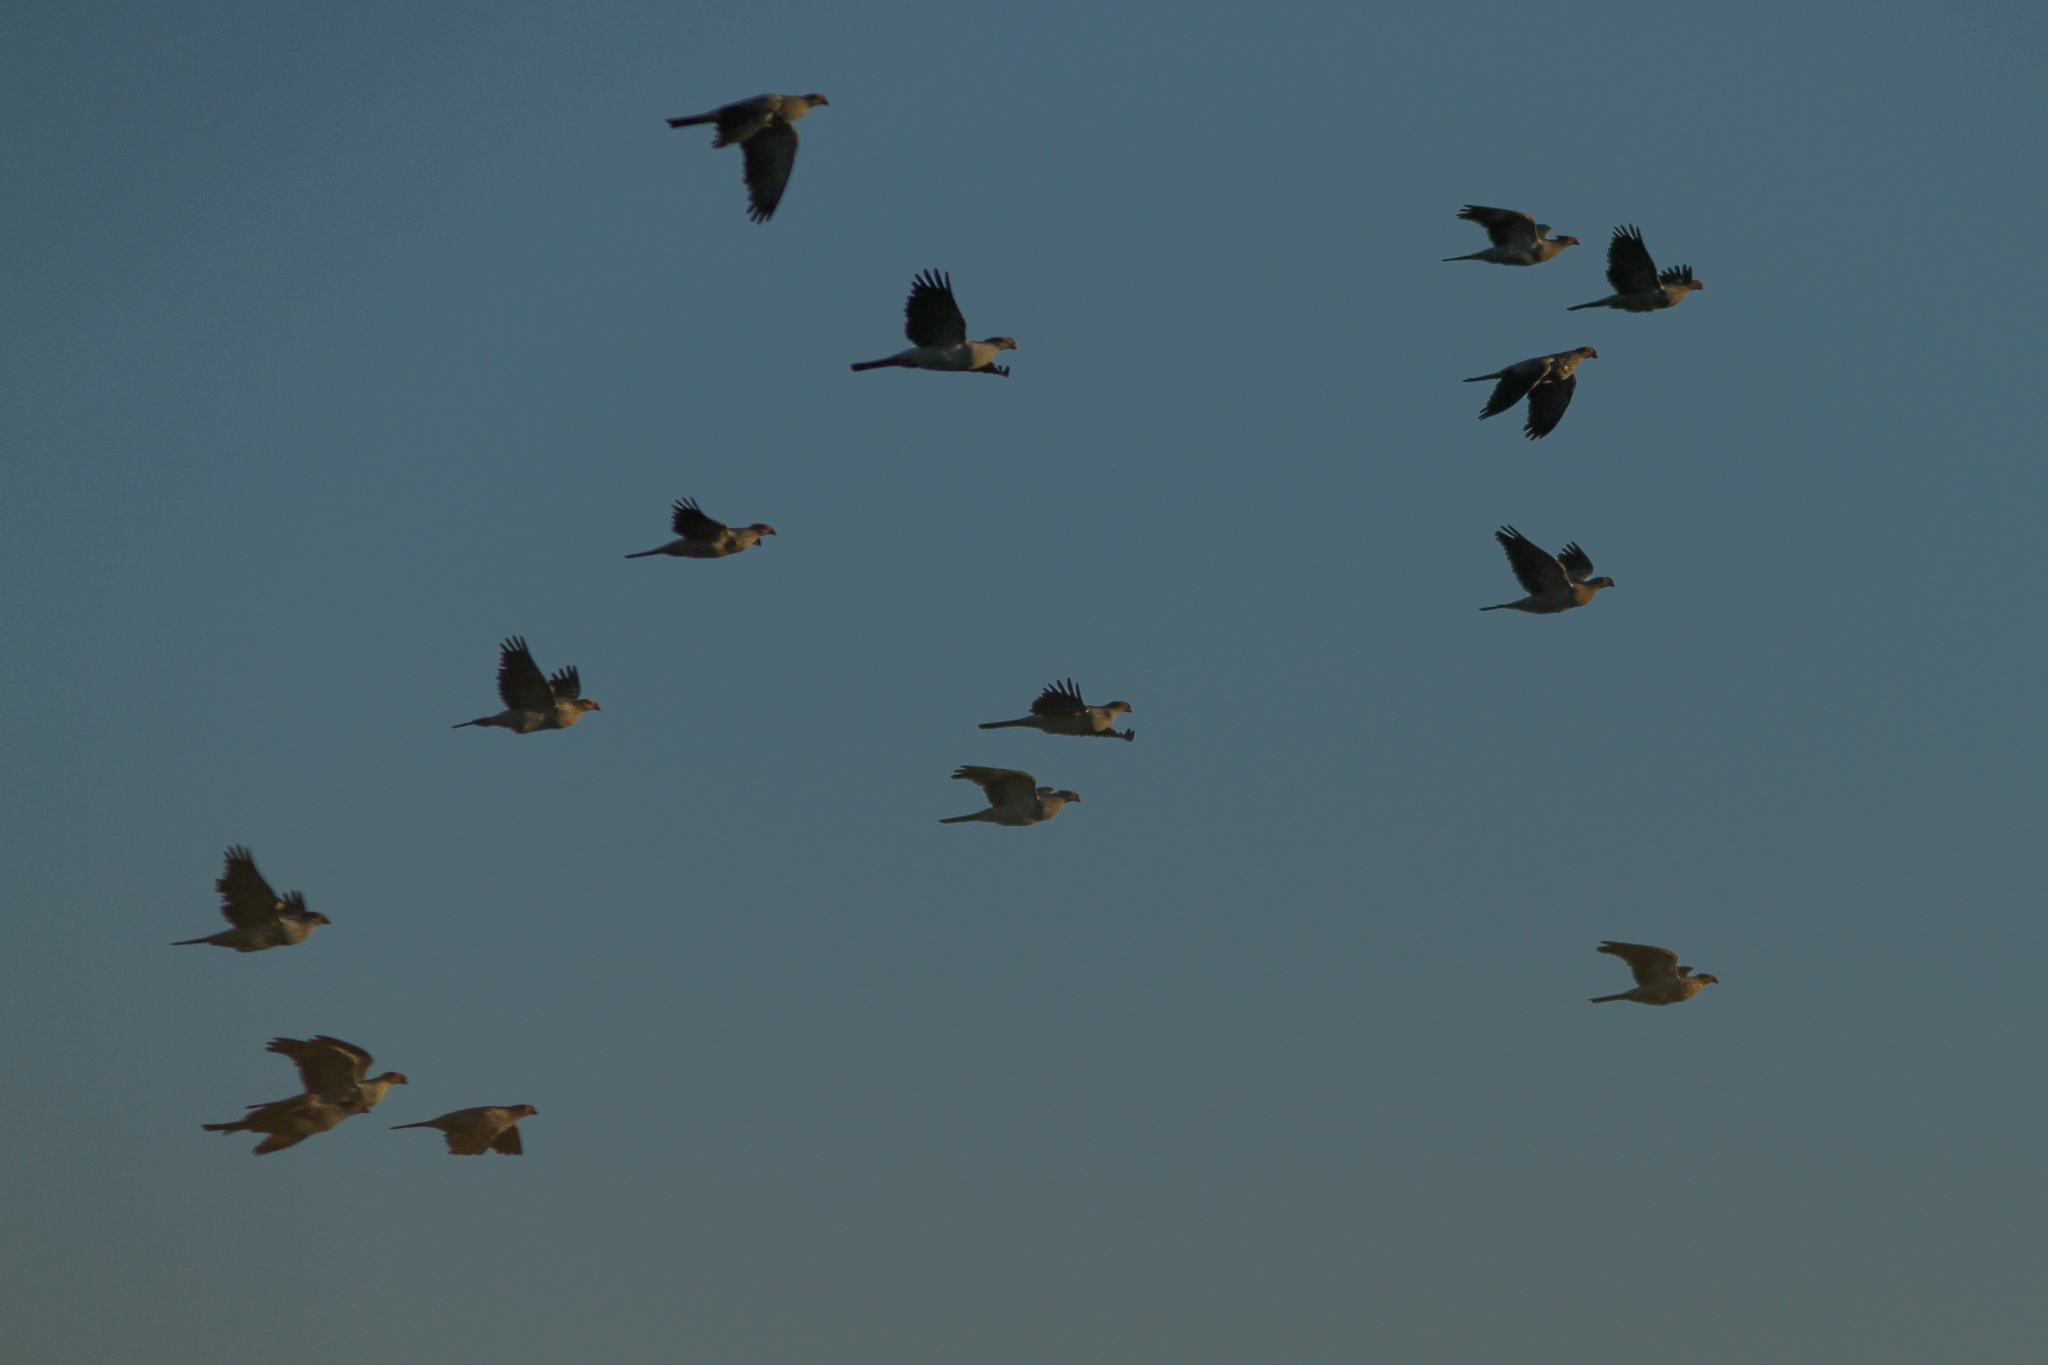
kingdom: Animalia
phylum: Chordata
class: Aves
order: Columbiformes
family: Columbidae
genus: Lopholaimus
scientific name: Lopholaimus antarcticus
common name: Topknot pigeon
